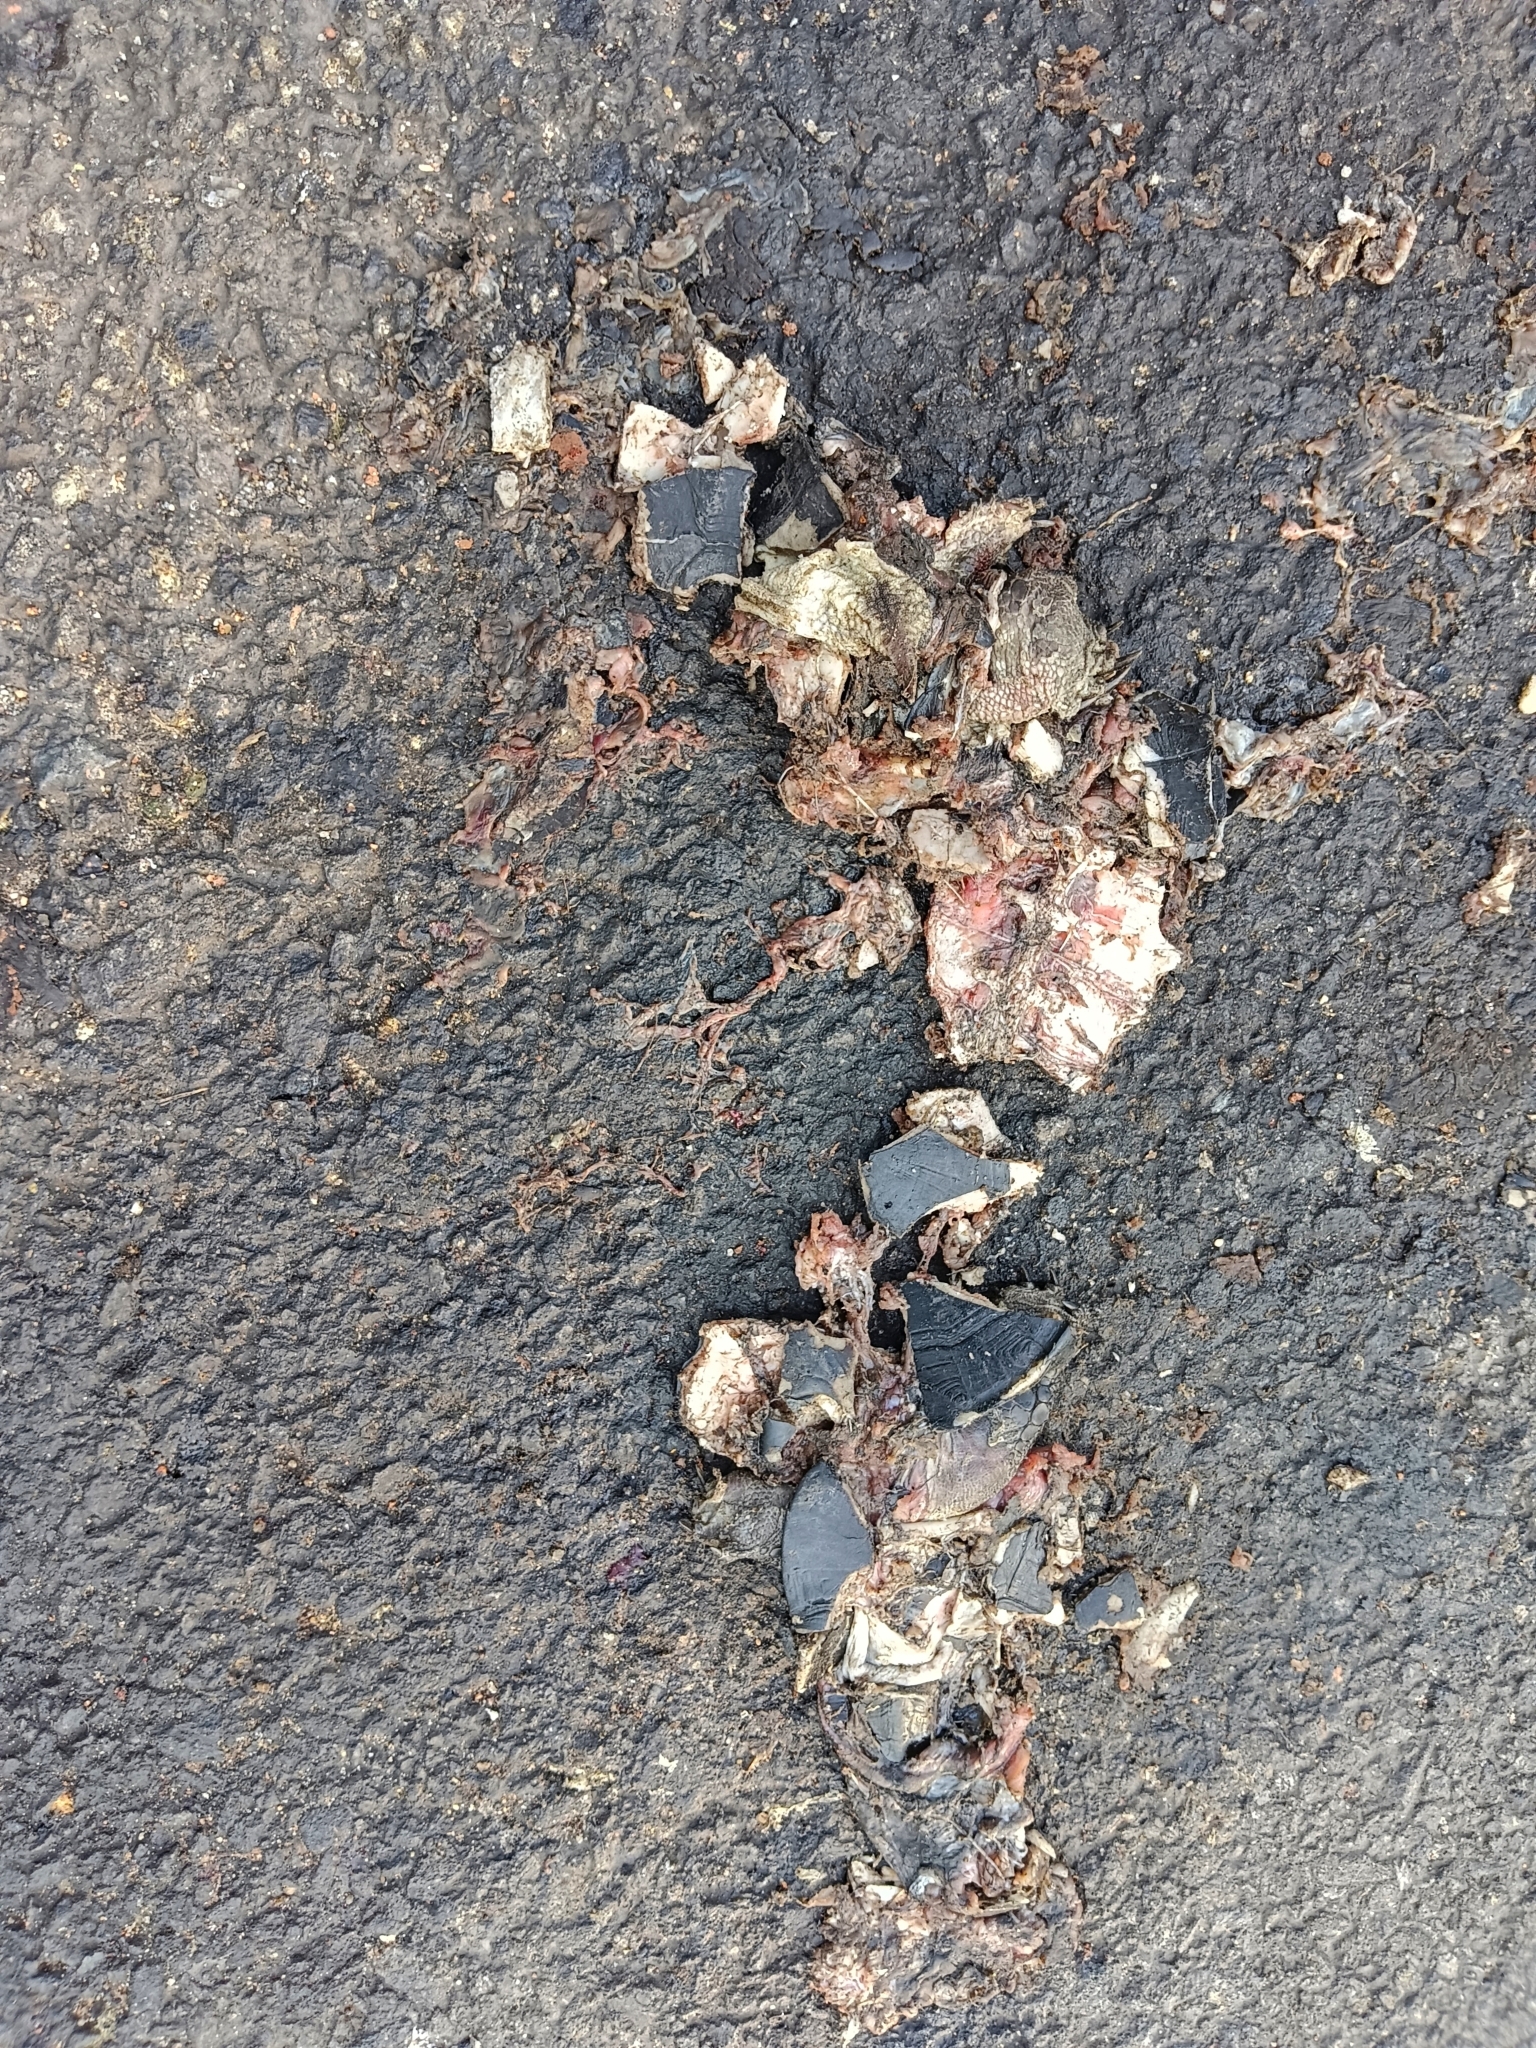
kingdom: Animalia
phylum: Chordata
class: Testudines
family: Geoemydidae
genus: Melanochelys
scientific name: Melanochelys trijuga
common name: Indian black turtle
